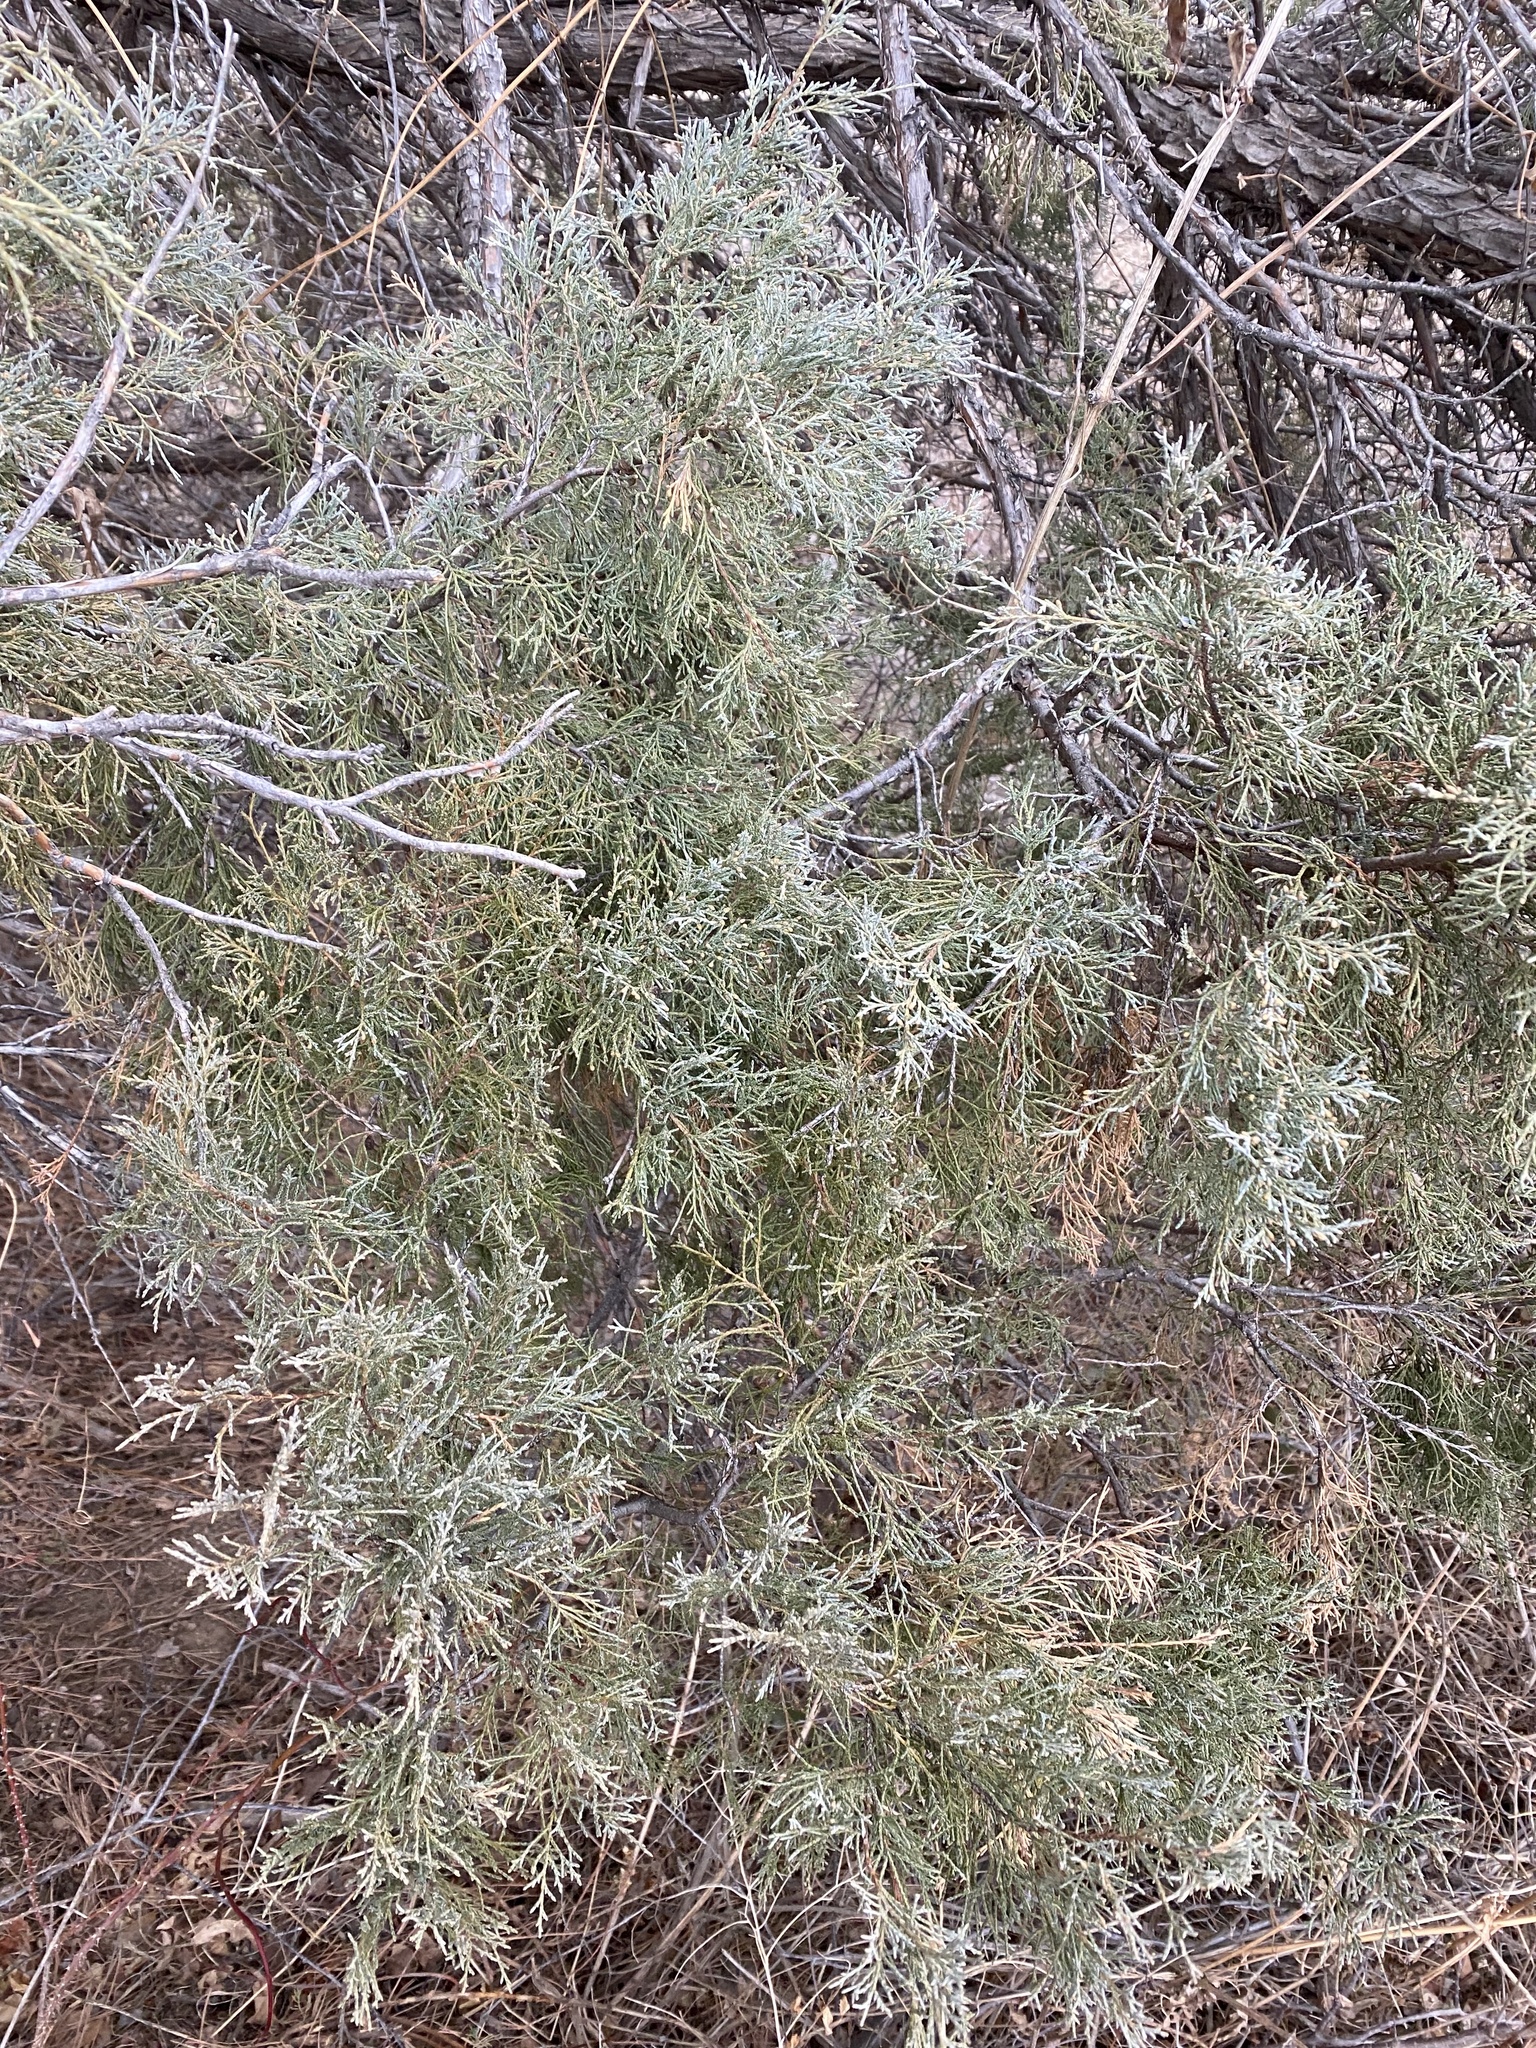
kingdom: Plantae
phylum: Tracheophyta
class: Pinopsida
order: Pinales
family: Cupressaceae
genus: Juniperus
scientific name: Juniperus scopulorum
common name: Rocky mountain juniper
